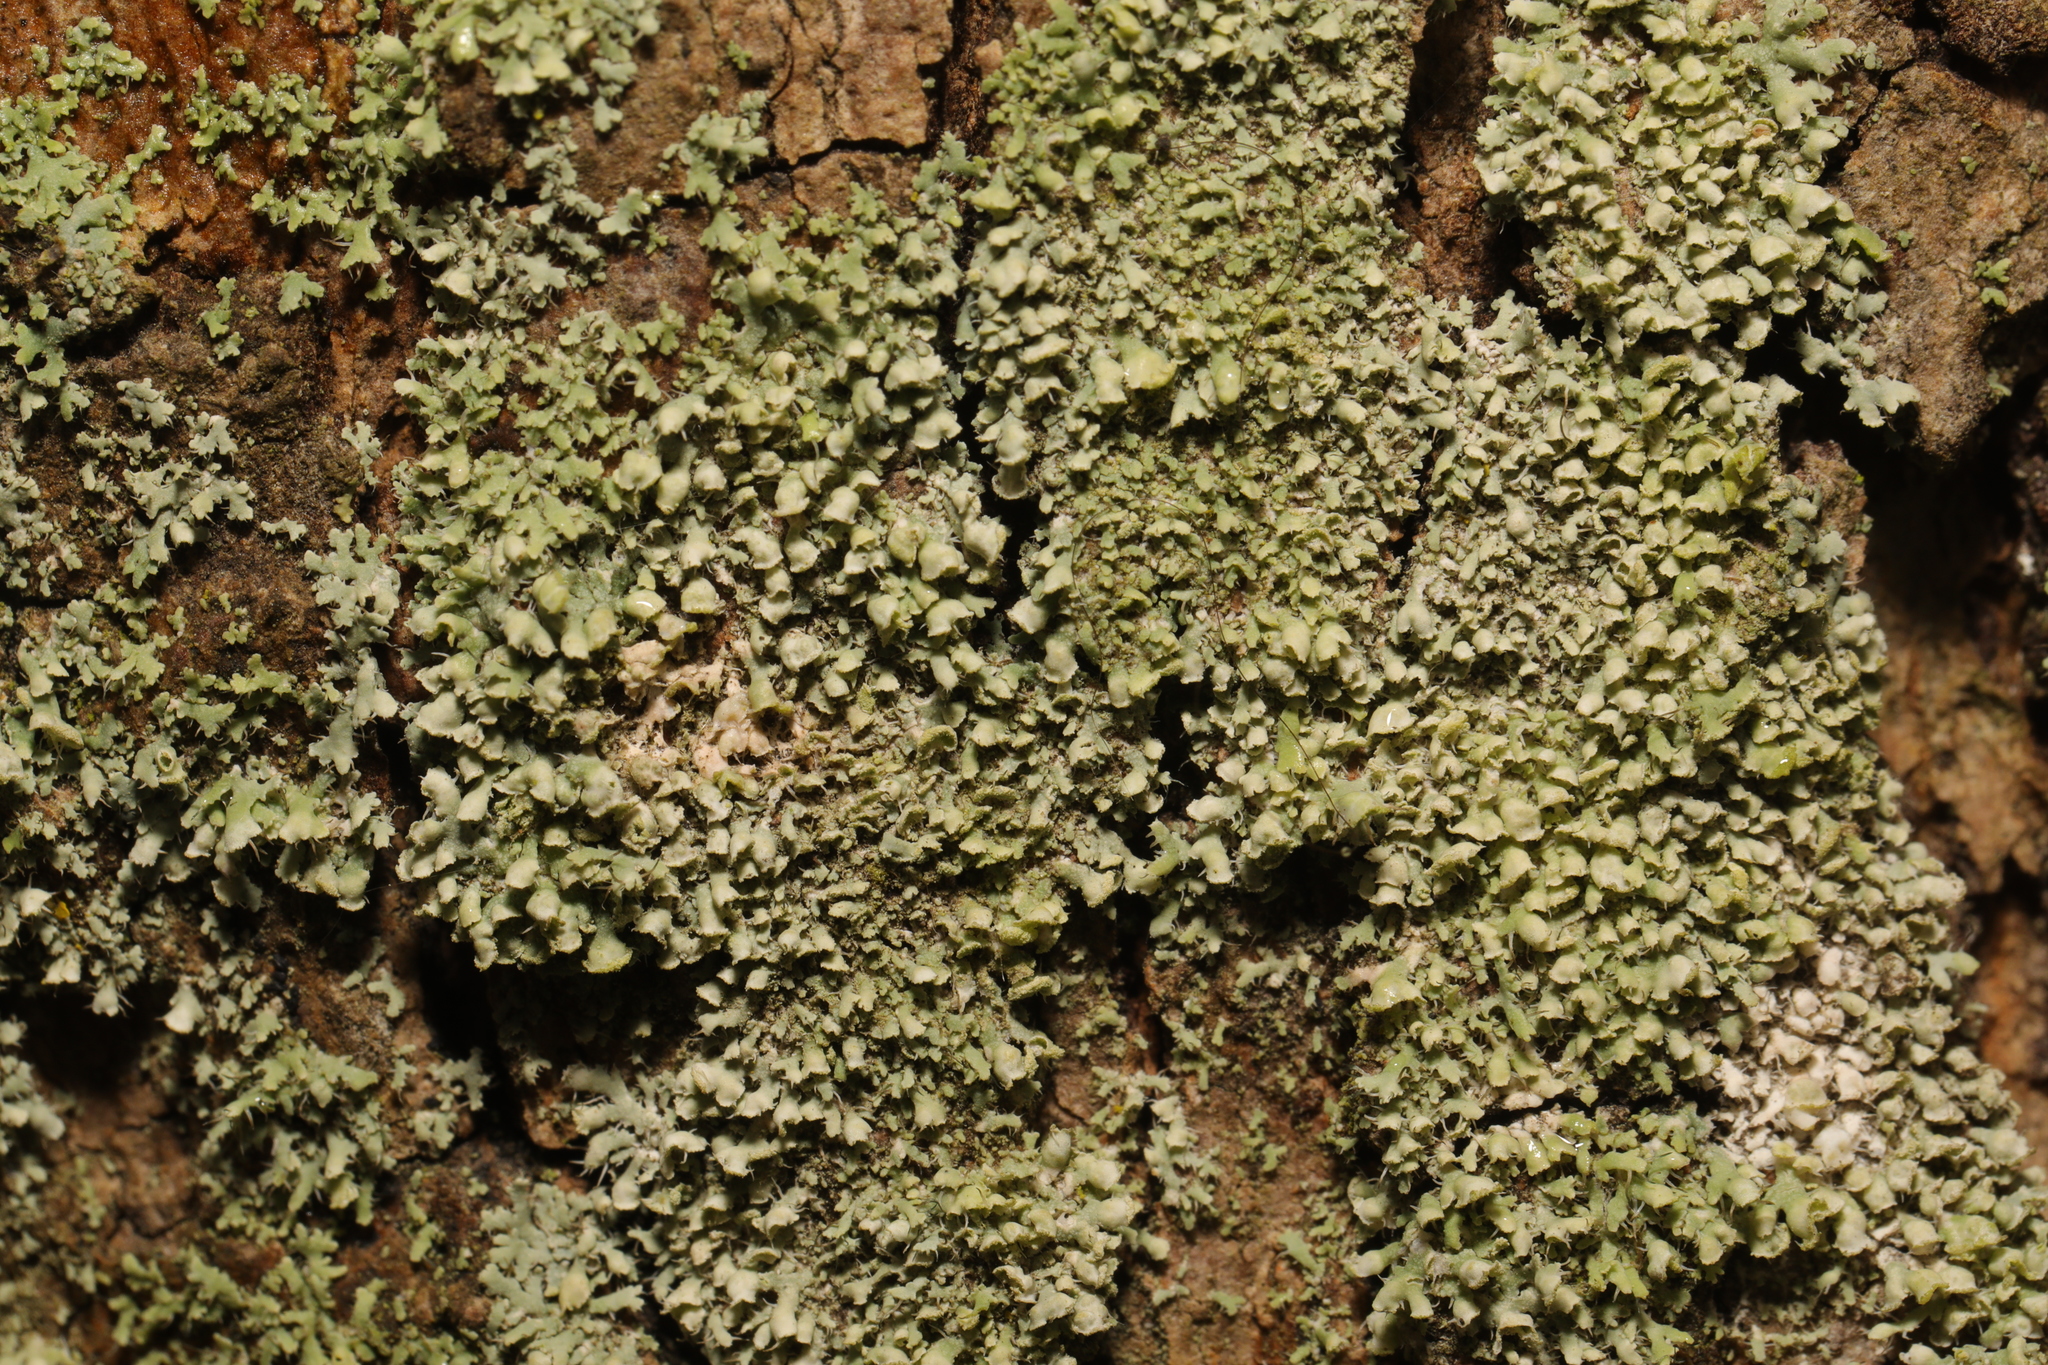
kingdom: Fungi
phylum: Ascomycota
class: Lecanoromycetes
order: Caliciales
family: Physciaceae
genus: Physcia
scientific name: Physcia adscendens
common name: Hooded rosette lichen
